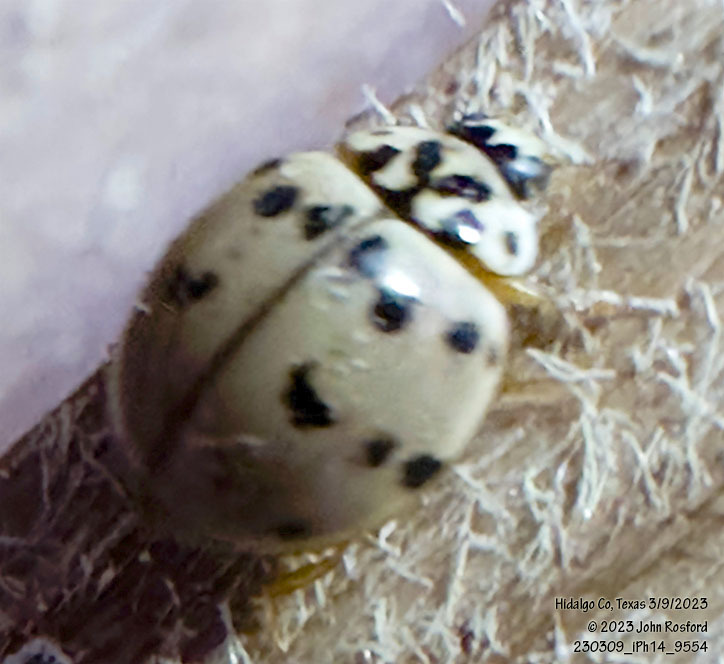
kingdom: Animalia
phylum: Arthropoda
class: Insecta
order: Coleoptera
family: Coccinellidae
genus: Olla
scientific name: Olla v-nigrum
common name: Ashy gray lady beetle
